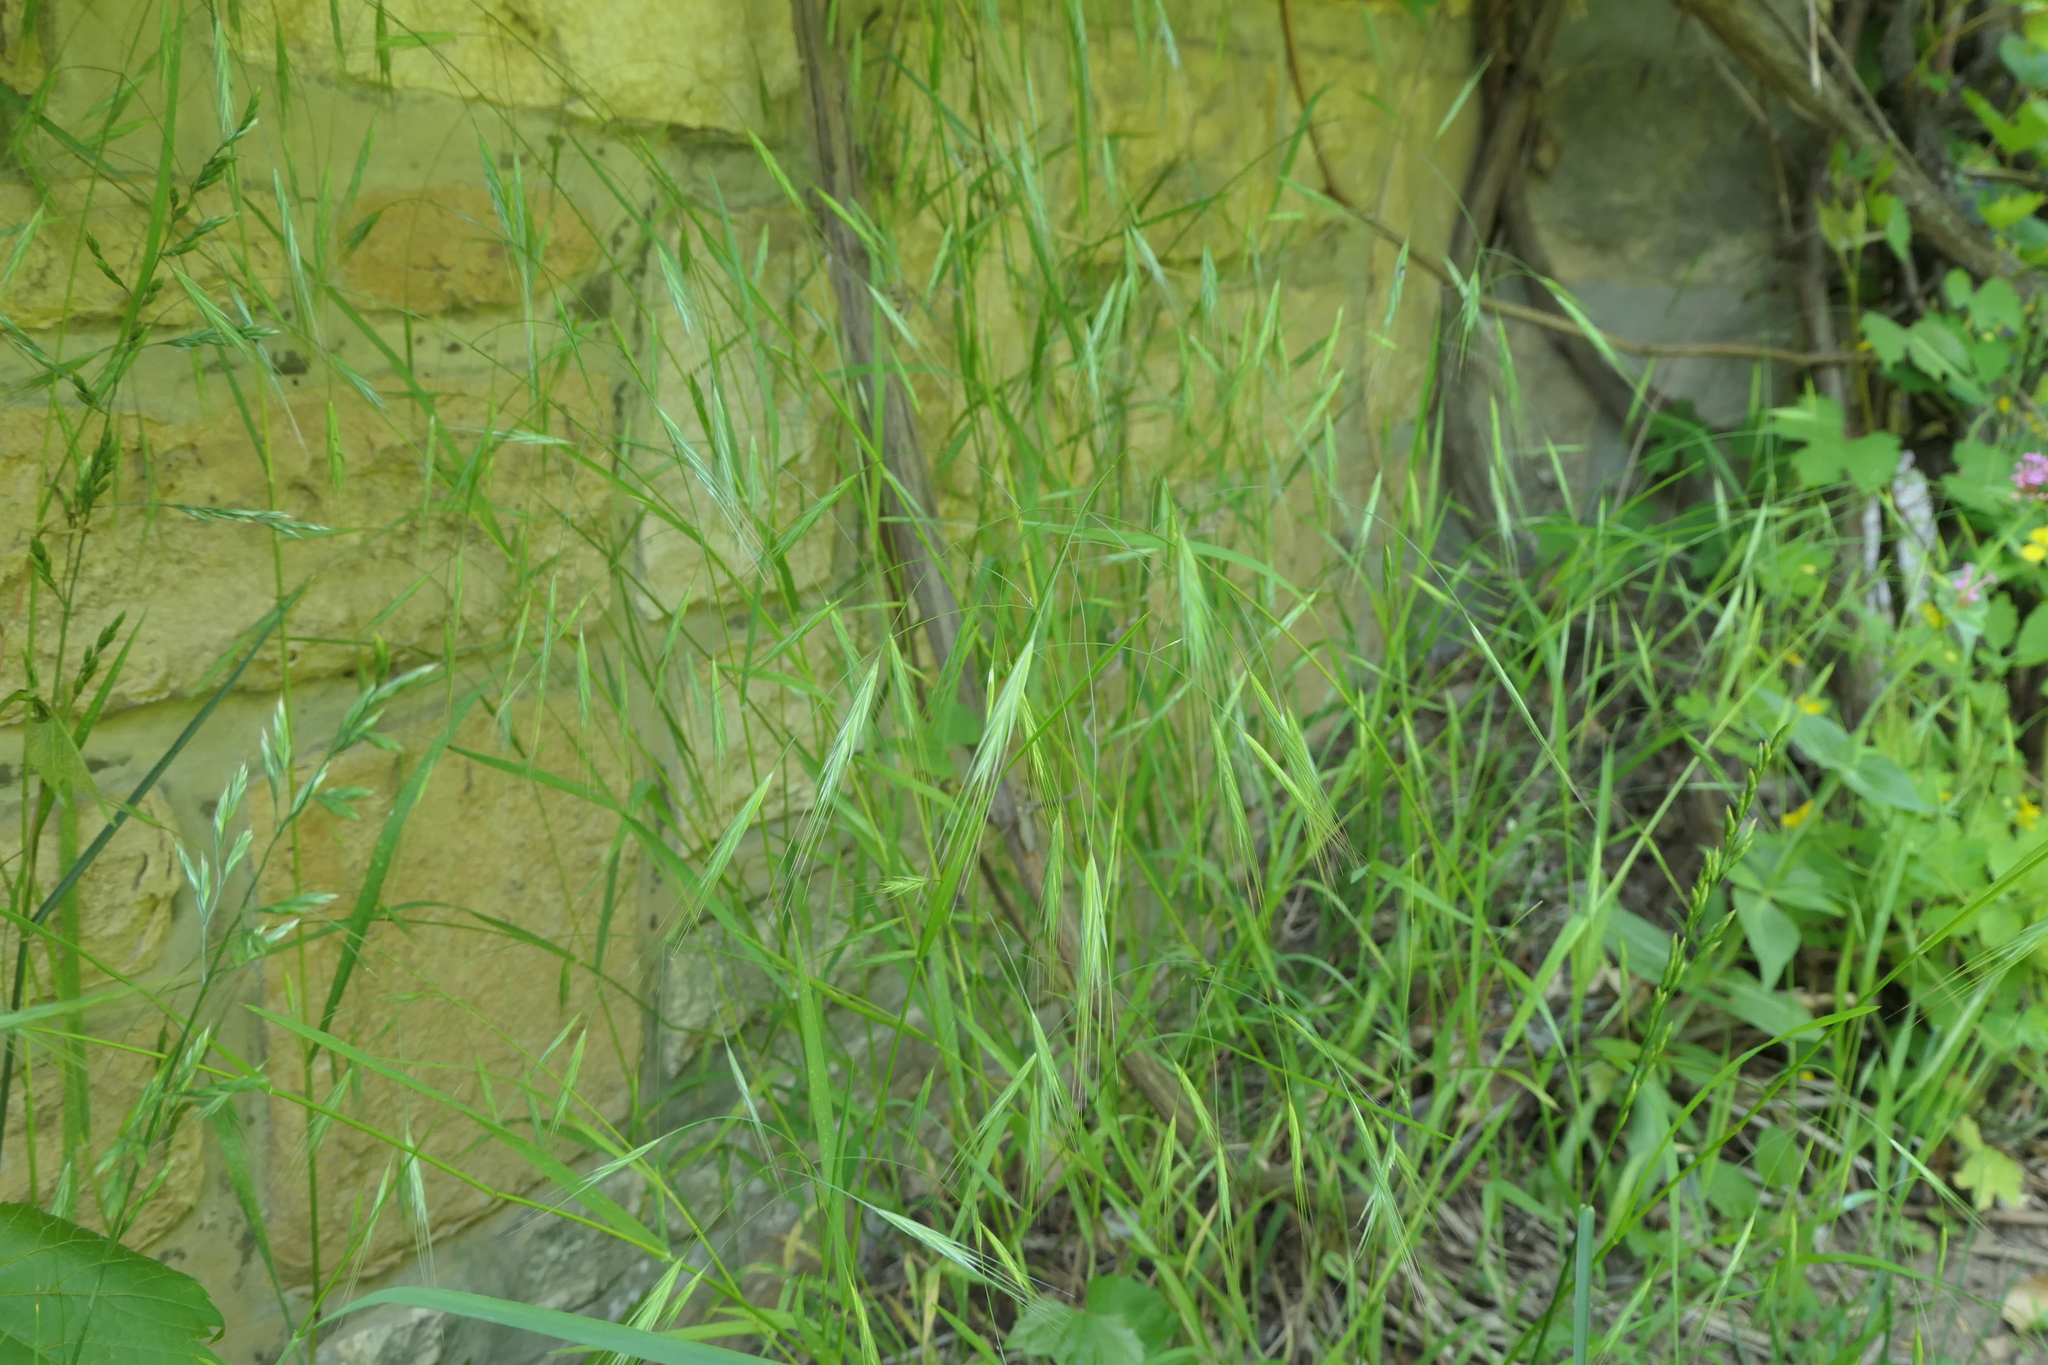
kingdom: Plantae
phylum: Tracheophyta
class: Liliopsida
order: Poales
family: Poaceae
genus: Bromus
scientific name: Bromus sterilis
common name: Poverty brome
